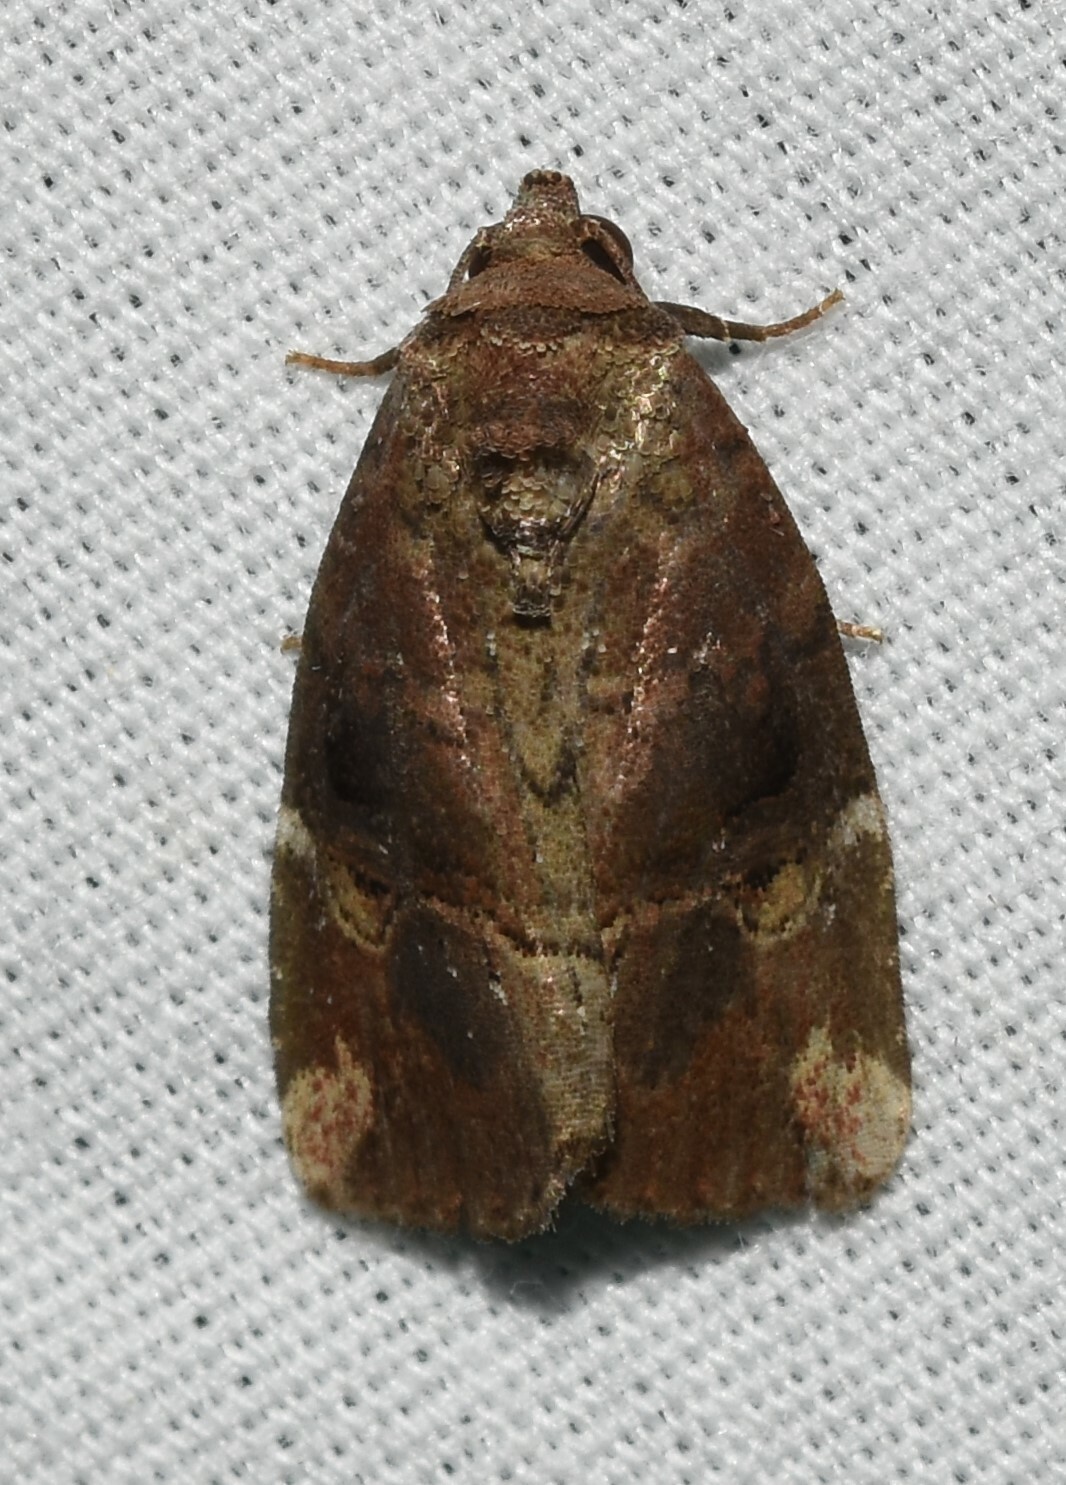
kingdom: Animalia
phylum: Arthropoda
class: Insecta
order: Lepidoptera
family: Noctuidae
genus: Elaphria
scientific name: Elaphria versicolor
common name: Fir harlequin
